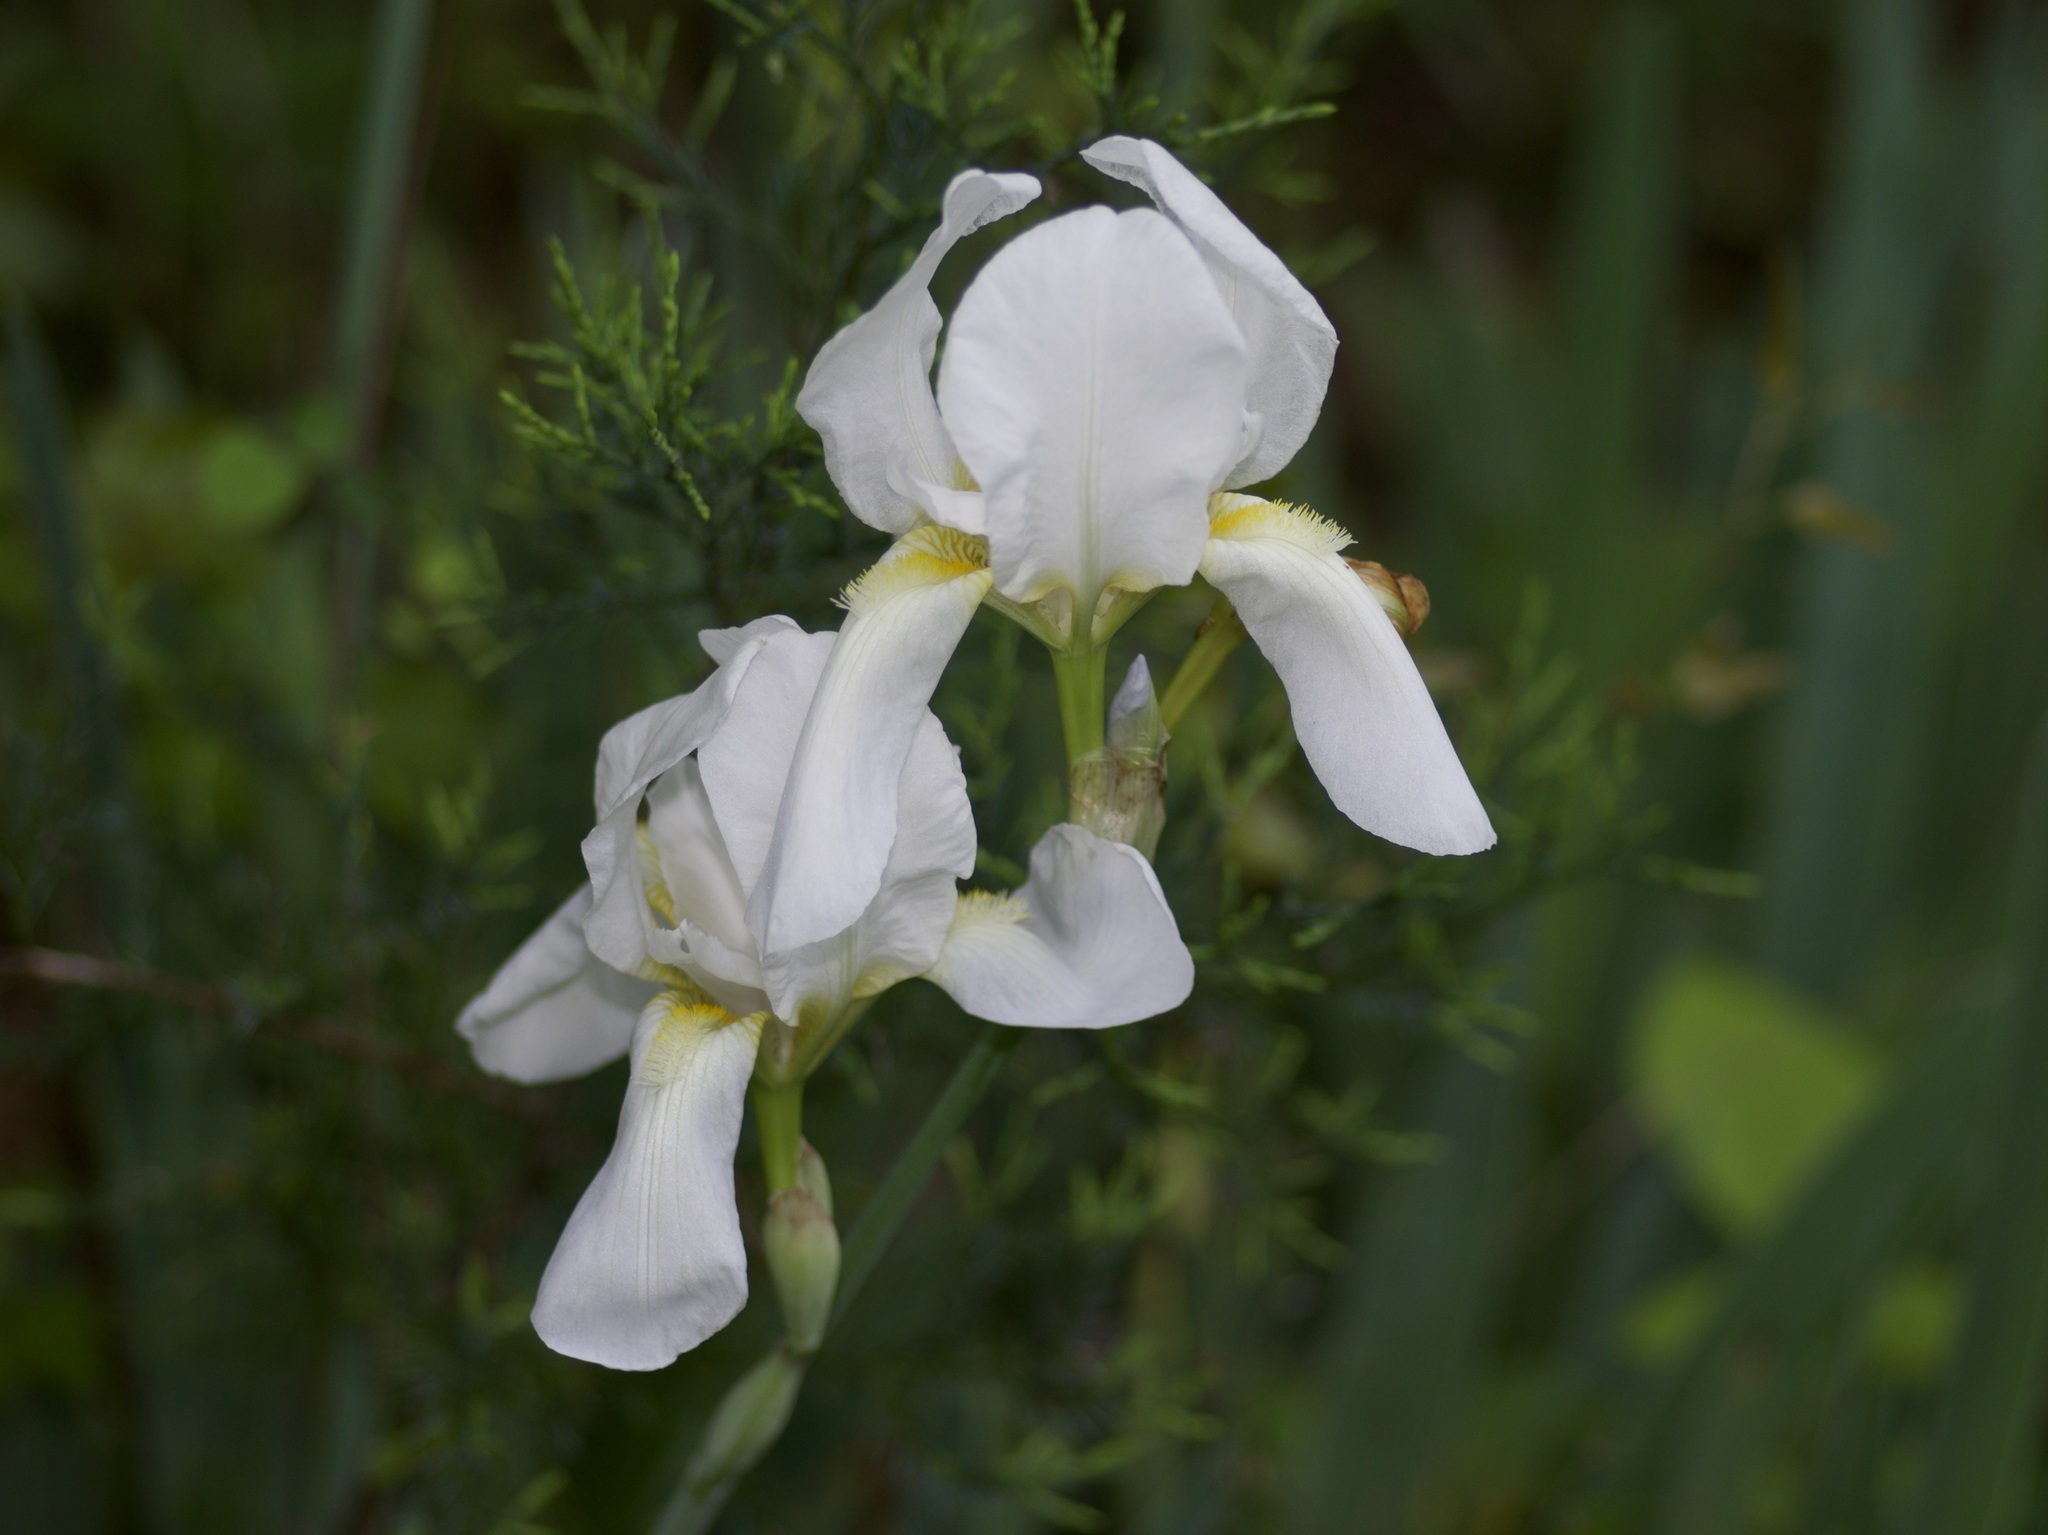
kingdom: Plantae
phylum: Tracheophyta
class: Liliopsida
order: Asparagales
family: Iridaceae
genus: Iris
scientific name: Iris florentina
